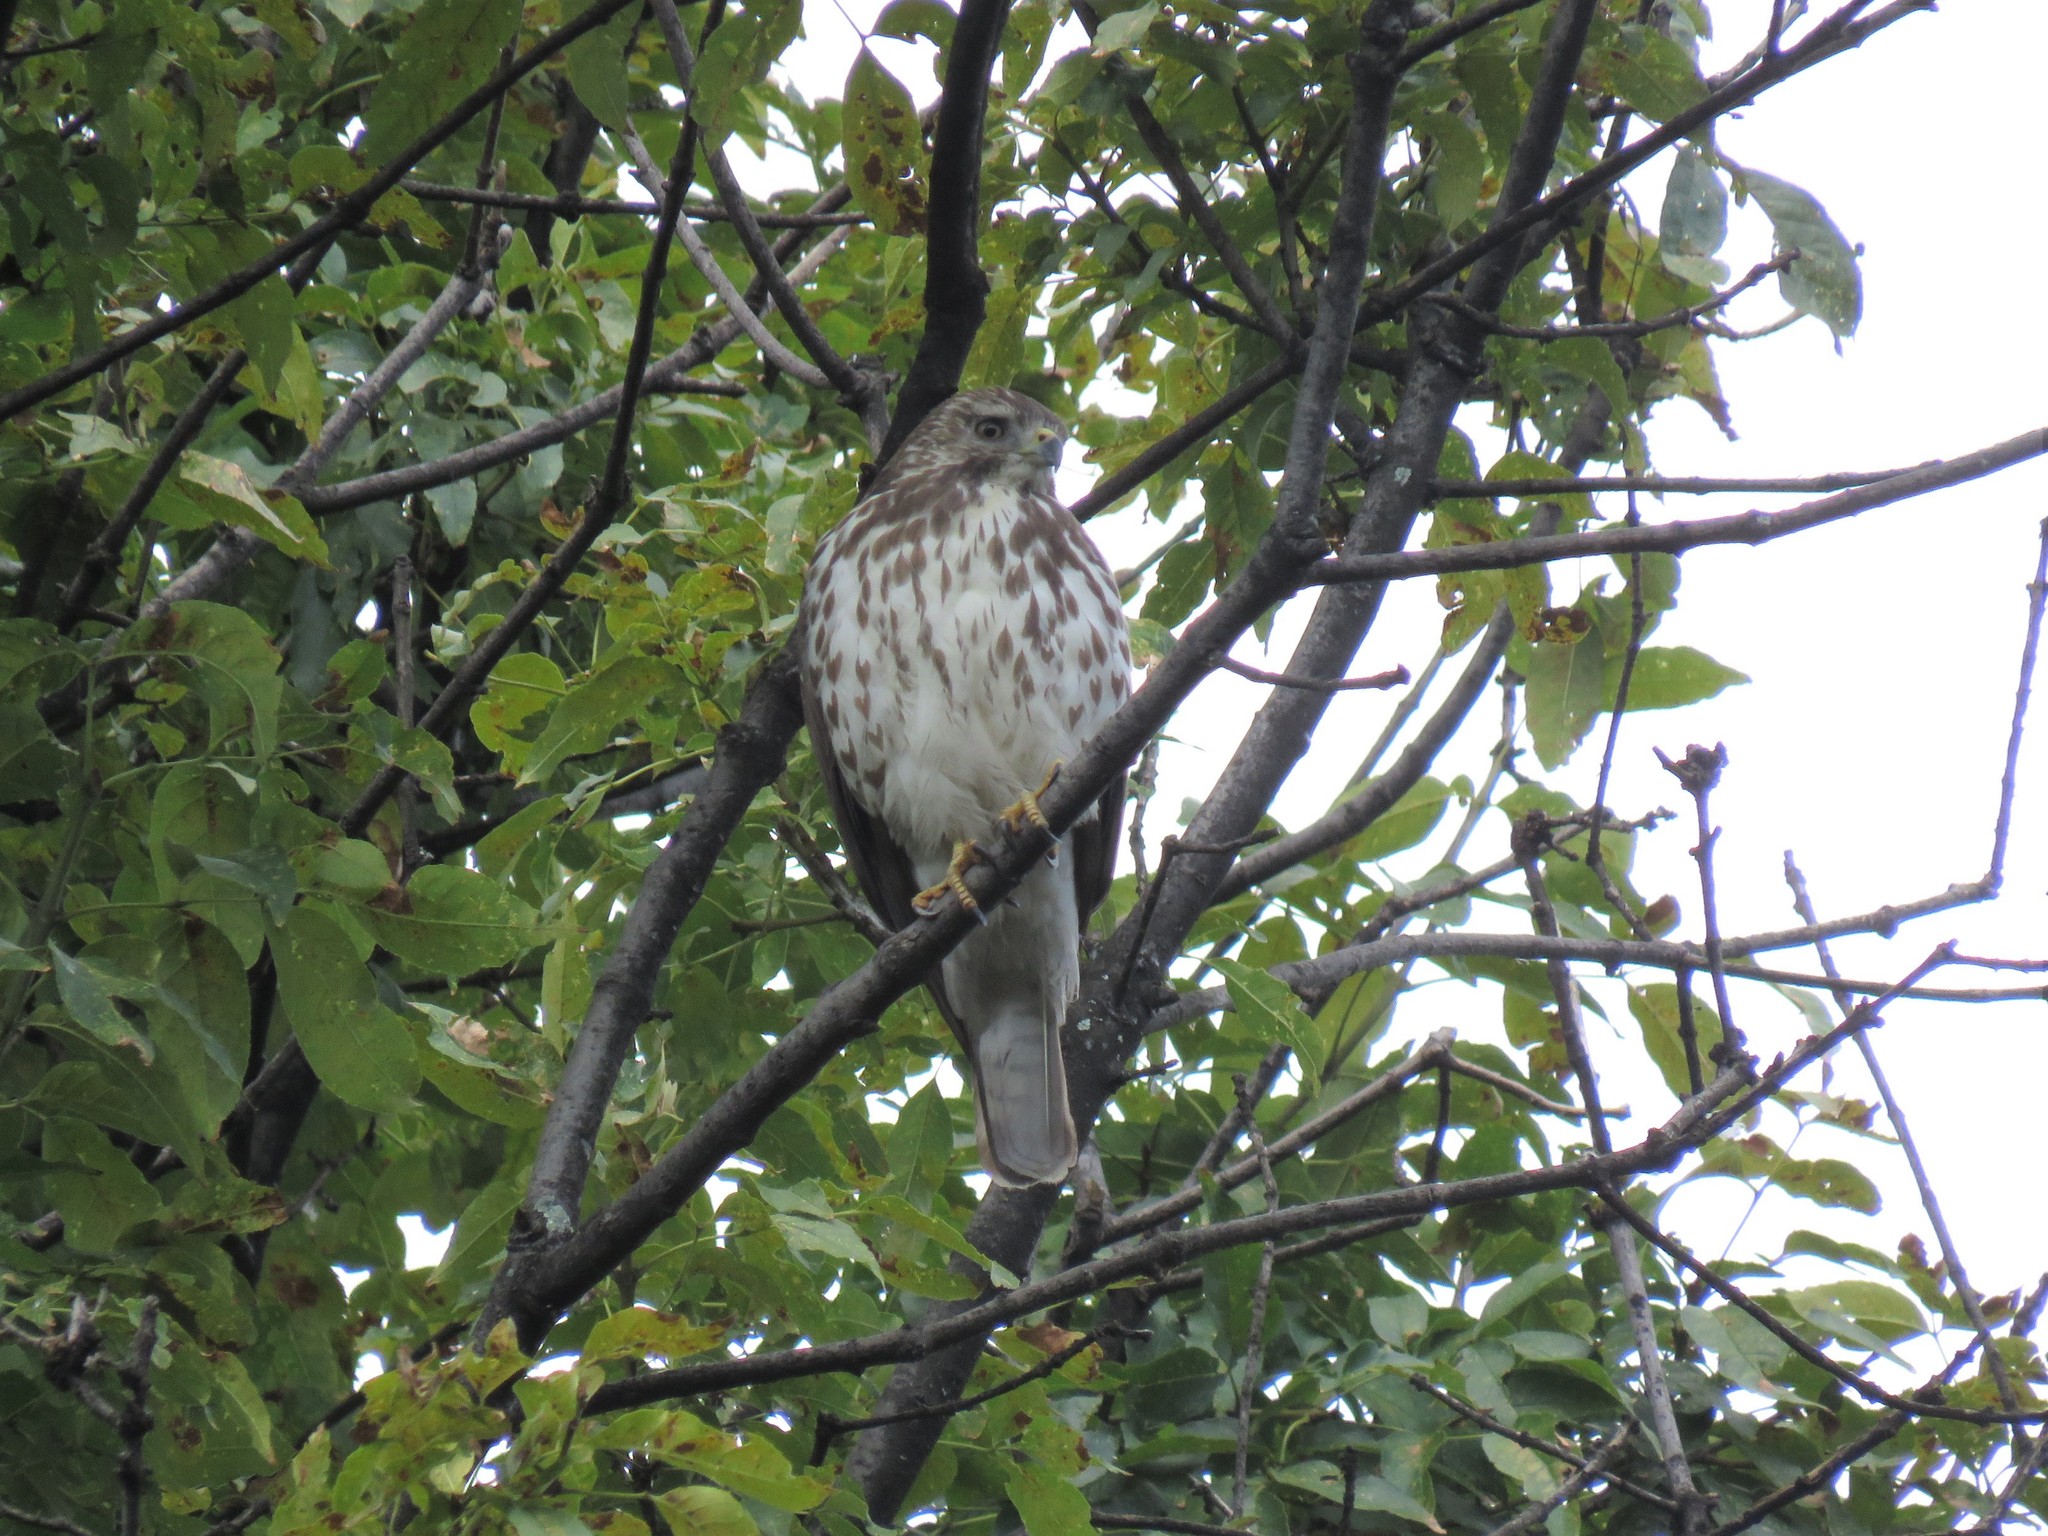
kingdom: Animalia
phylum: Chordata
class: Aves
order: Accipitriformes
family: Accipitridae
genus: Buteo
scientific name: Buteo platypterus
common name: Broad-winged hawk
